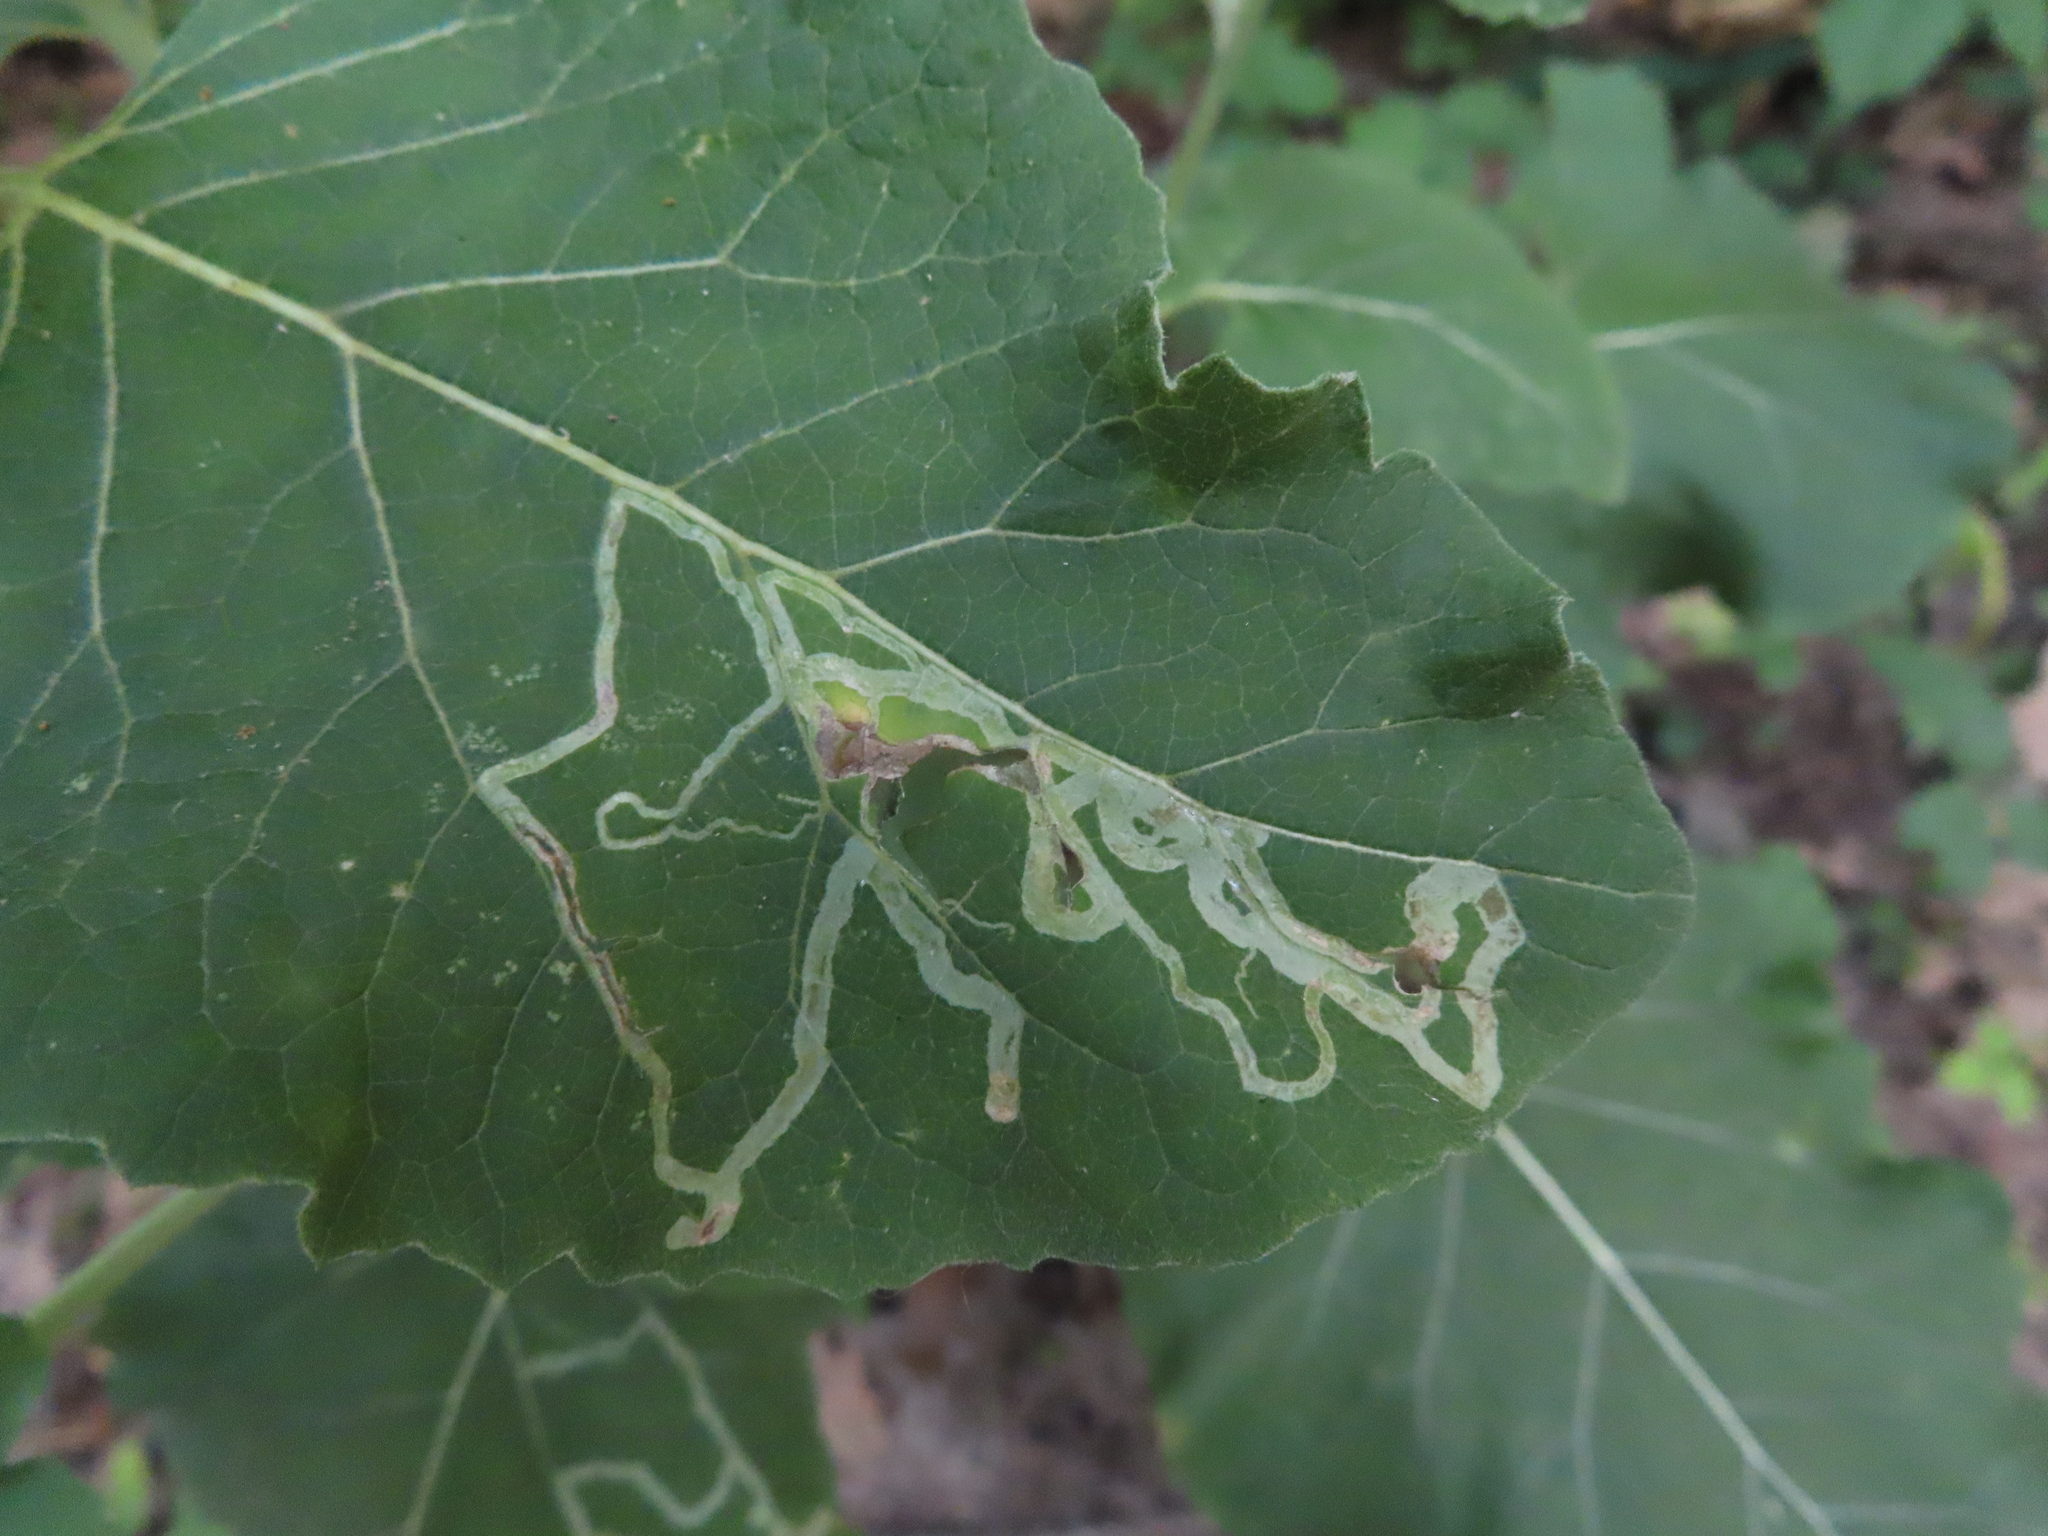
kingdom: Animalia
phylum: Arthropoda
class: Insecta
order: Diptera
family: Agromyzidae
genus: Liriomyza
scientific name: Liriomyza arctii
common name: Burdock leafminer
